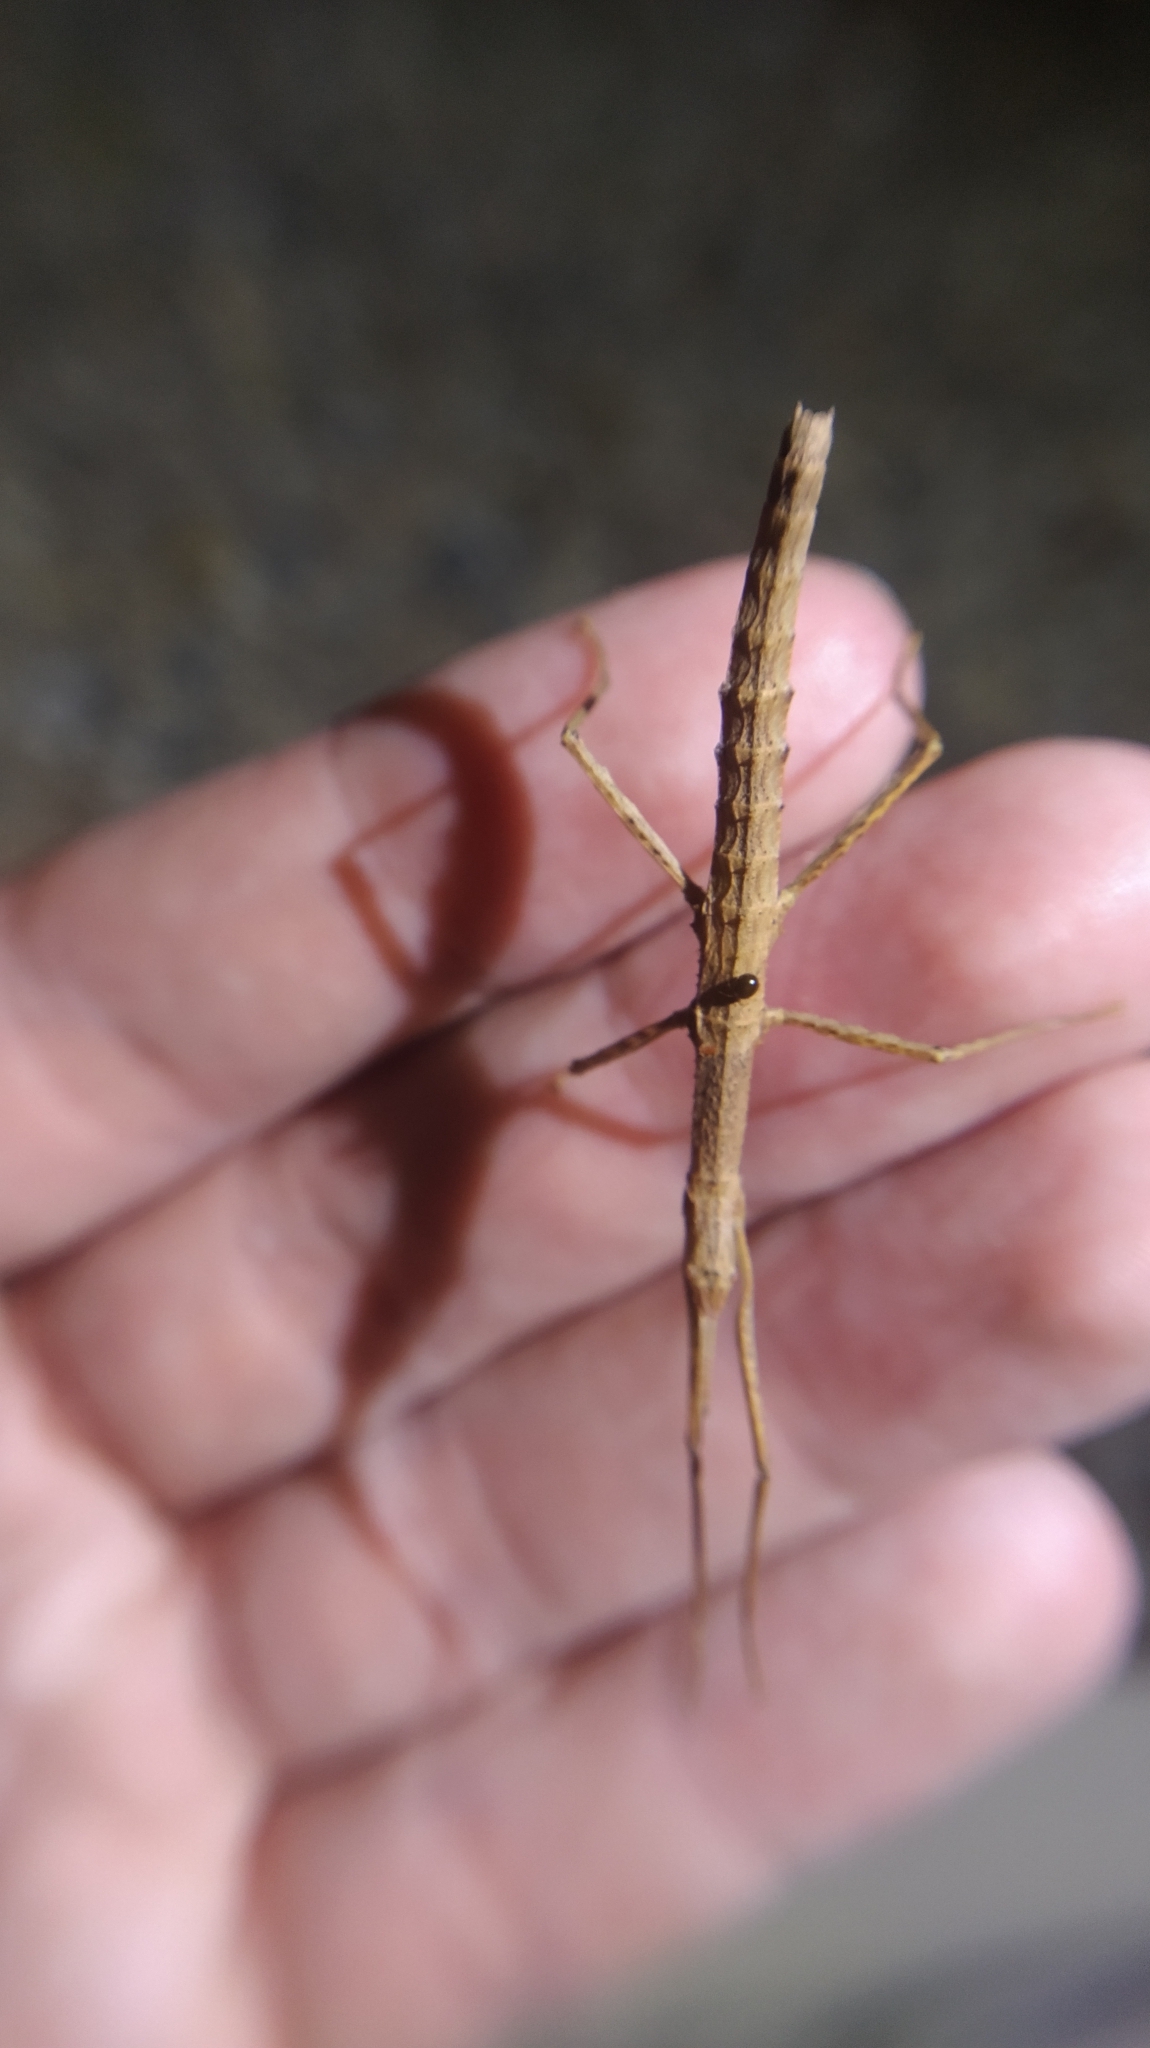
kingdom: Animalia
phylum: Arthropoda
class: Insecta
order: Phasmida
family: Phasmatidae
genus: Spinotectarchus
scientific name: Spinotectarchus acornutus
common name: The spiny ridge-backed stick insect
